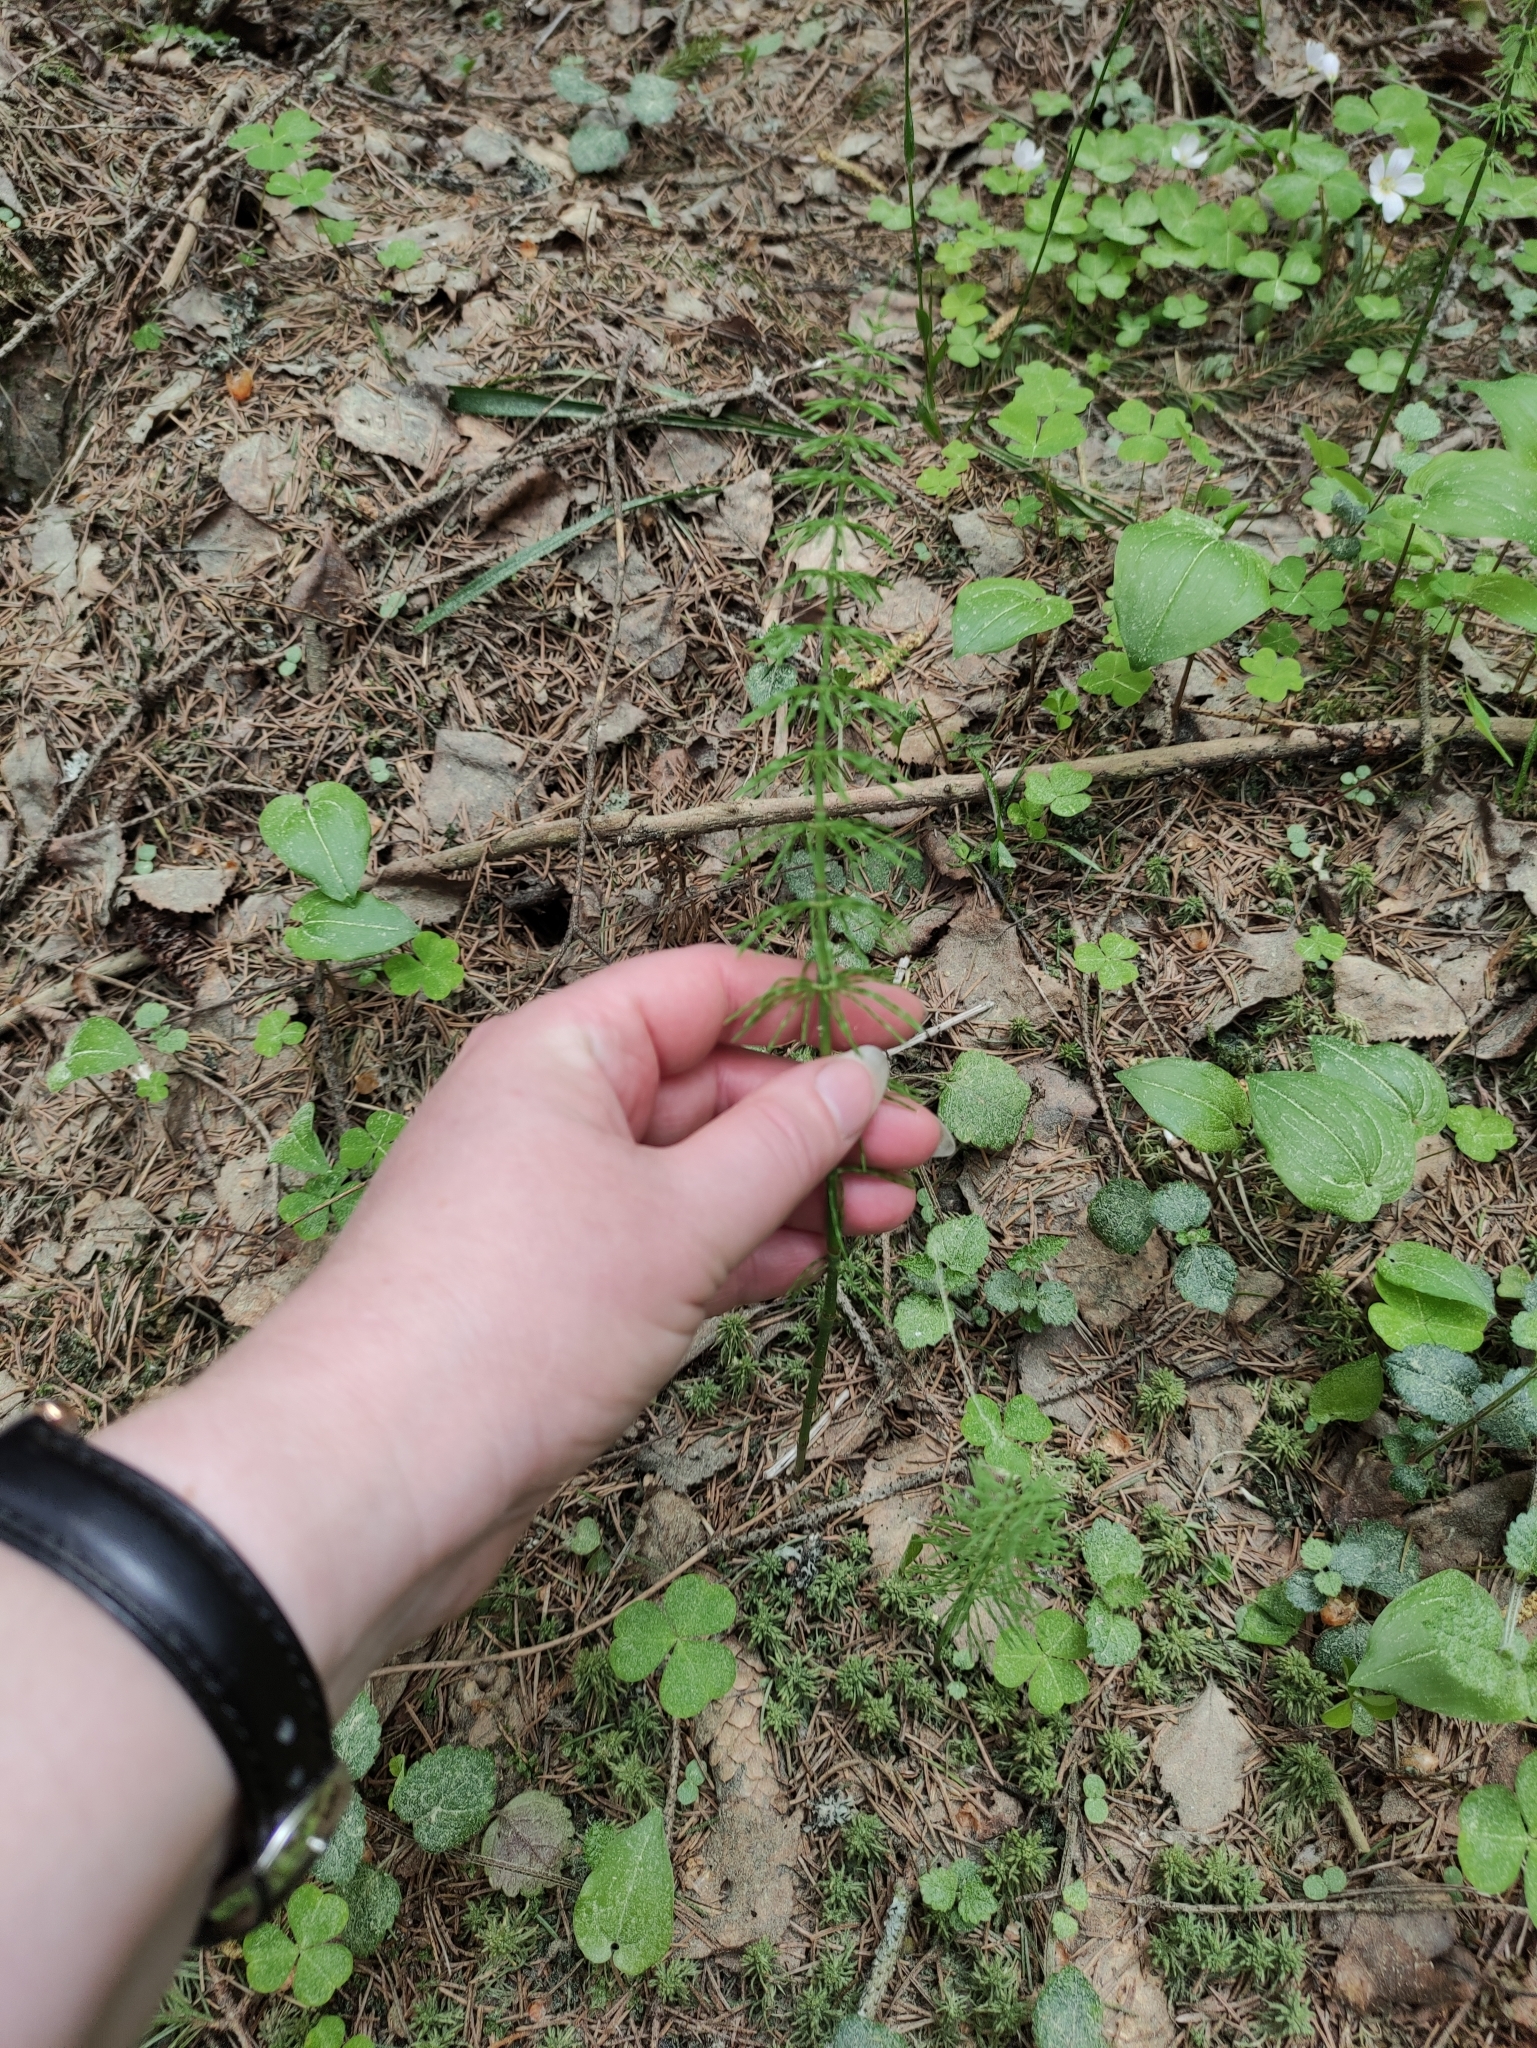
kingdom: Plantae
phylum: Tracheophyta
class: Polypodiopsida
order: Equisetales
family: Equisetaceae
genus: Equisetum
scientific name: Equisetum pratense
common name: Meadow horsetail
